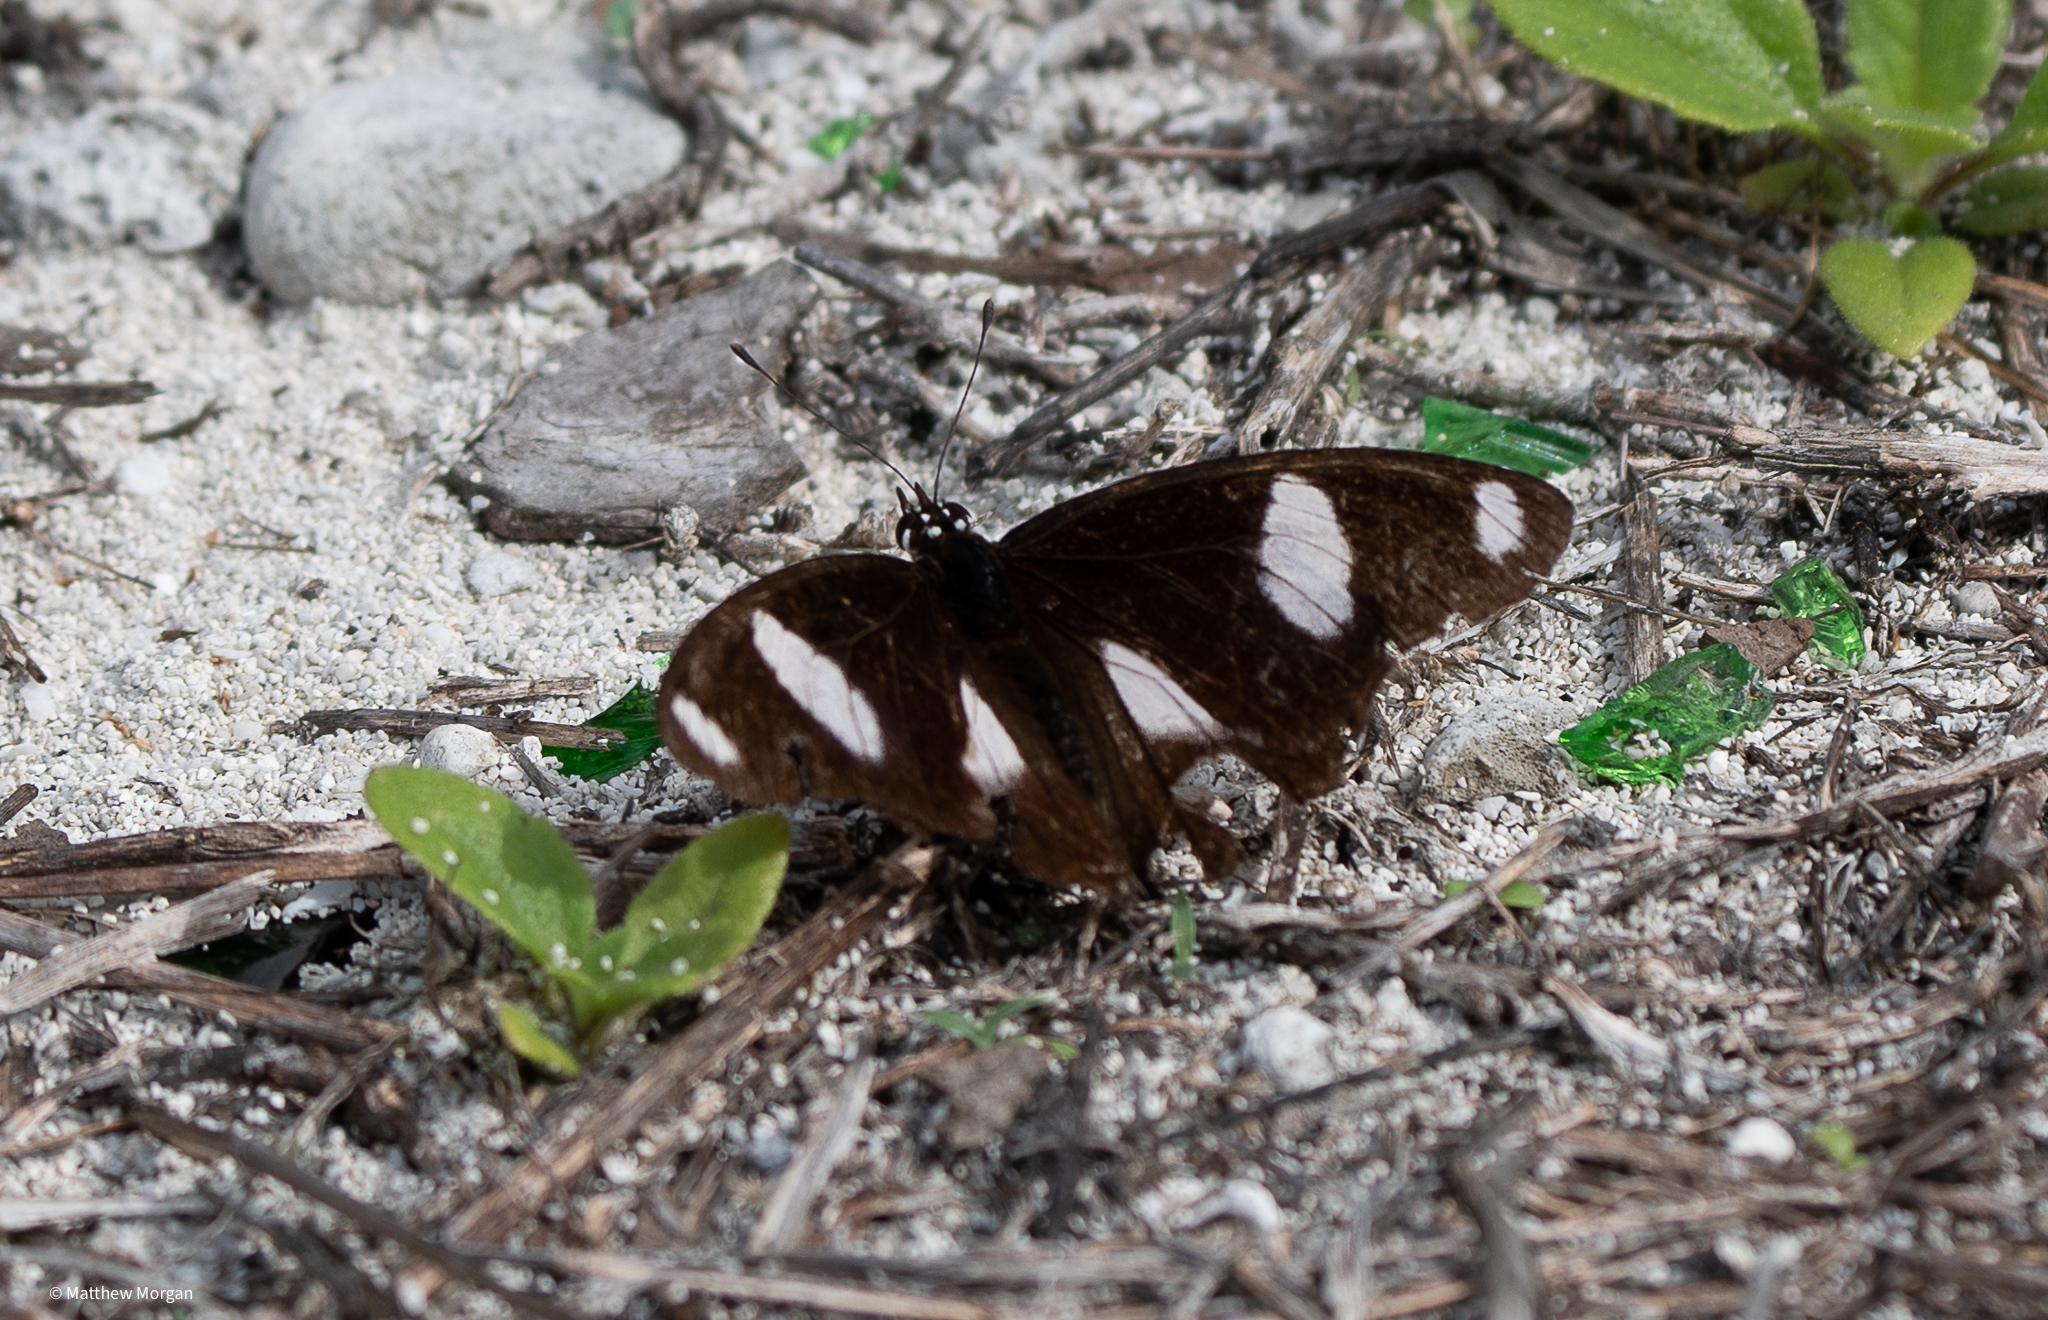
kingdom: Animalia
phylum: Arthropoda
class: Insecta
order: Lepidoptera
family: Nymphalidae
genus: Hypolimnas
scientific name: Hypolimnas misippus
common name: False plain tiger
